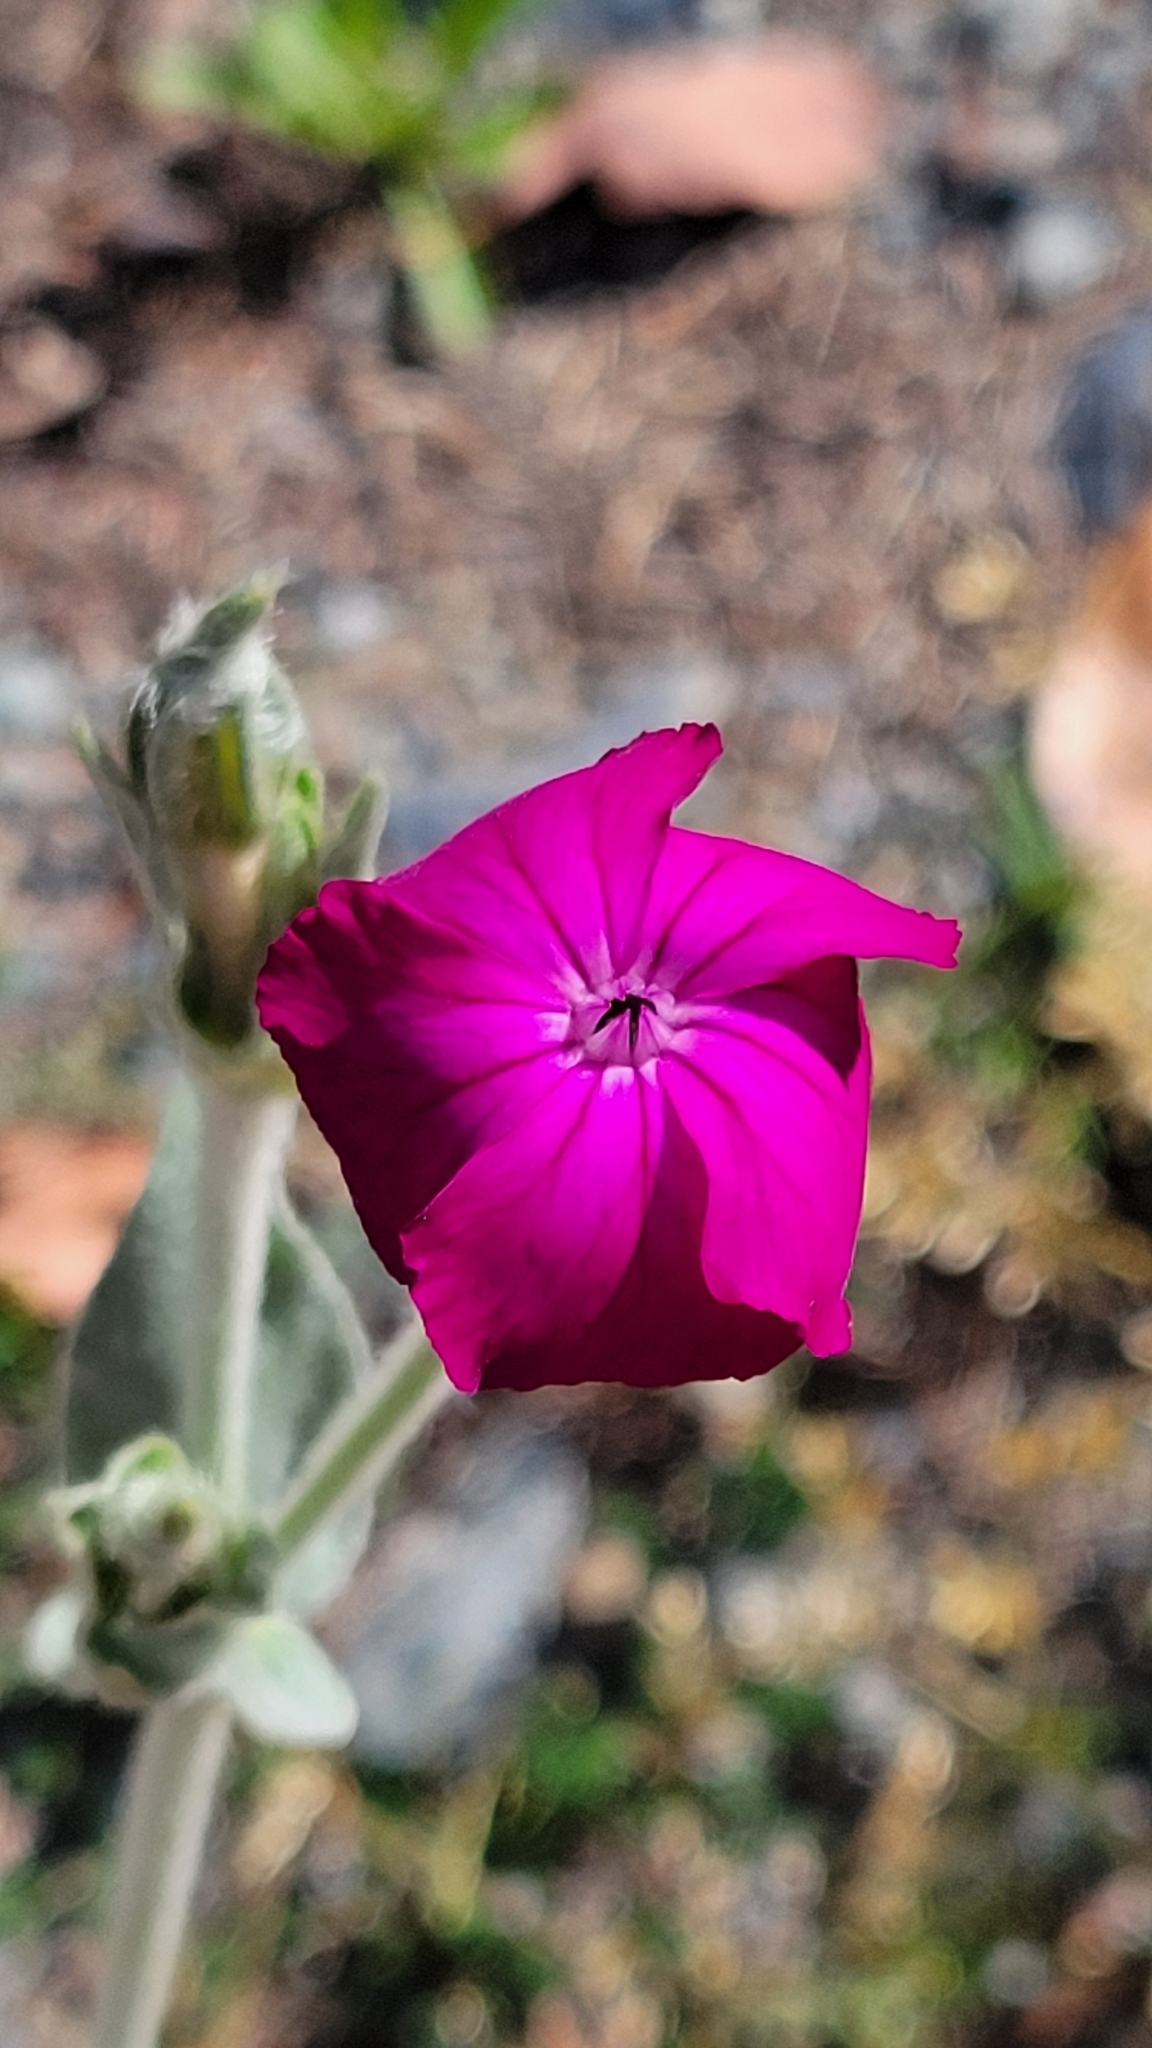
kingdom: Plantae
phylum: Tracheophyta
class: Magnoliopsida
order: Caryophyllales
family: Caryophyllaceae
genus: Silene
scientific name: Silene coronaria
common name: Rose campion
